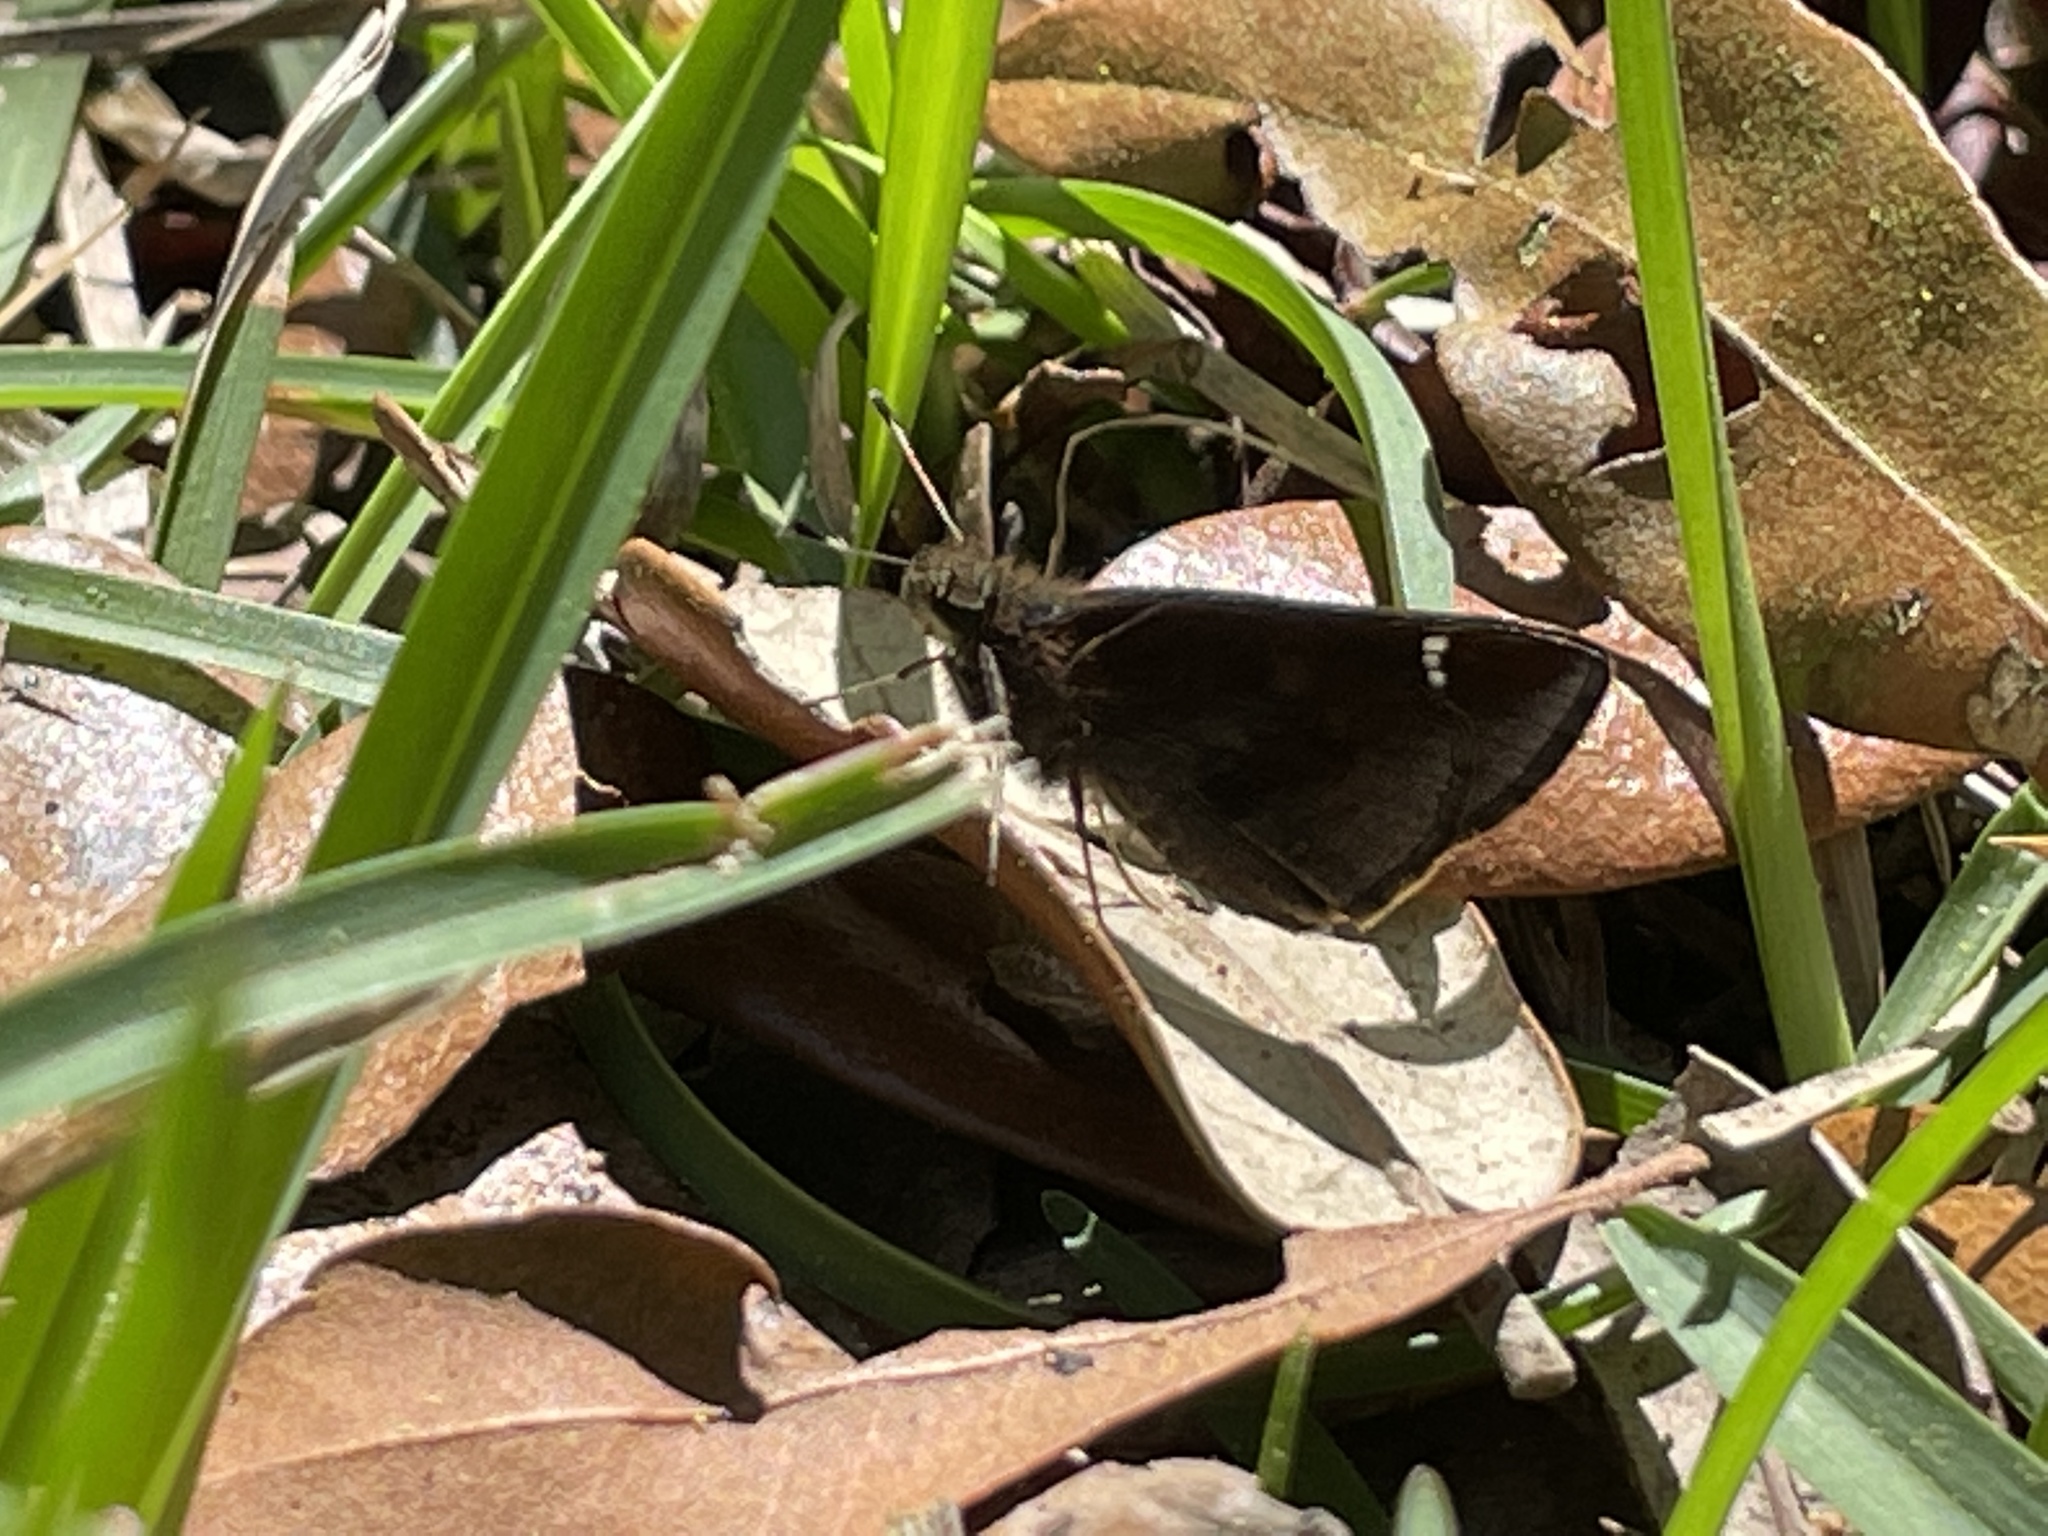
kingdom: Animalia
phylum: Arthropoda
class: Insecta
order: Lepidoptera
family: Hesperiidae
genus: Lerema
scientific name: Lerema accius
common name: Clouded skipper
